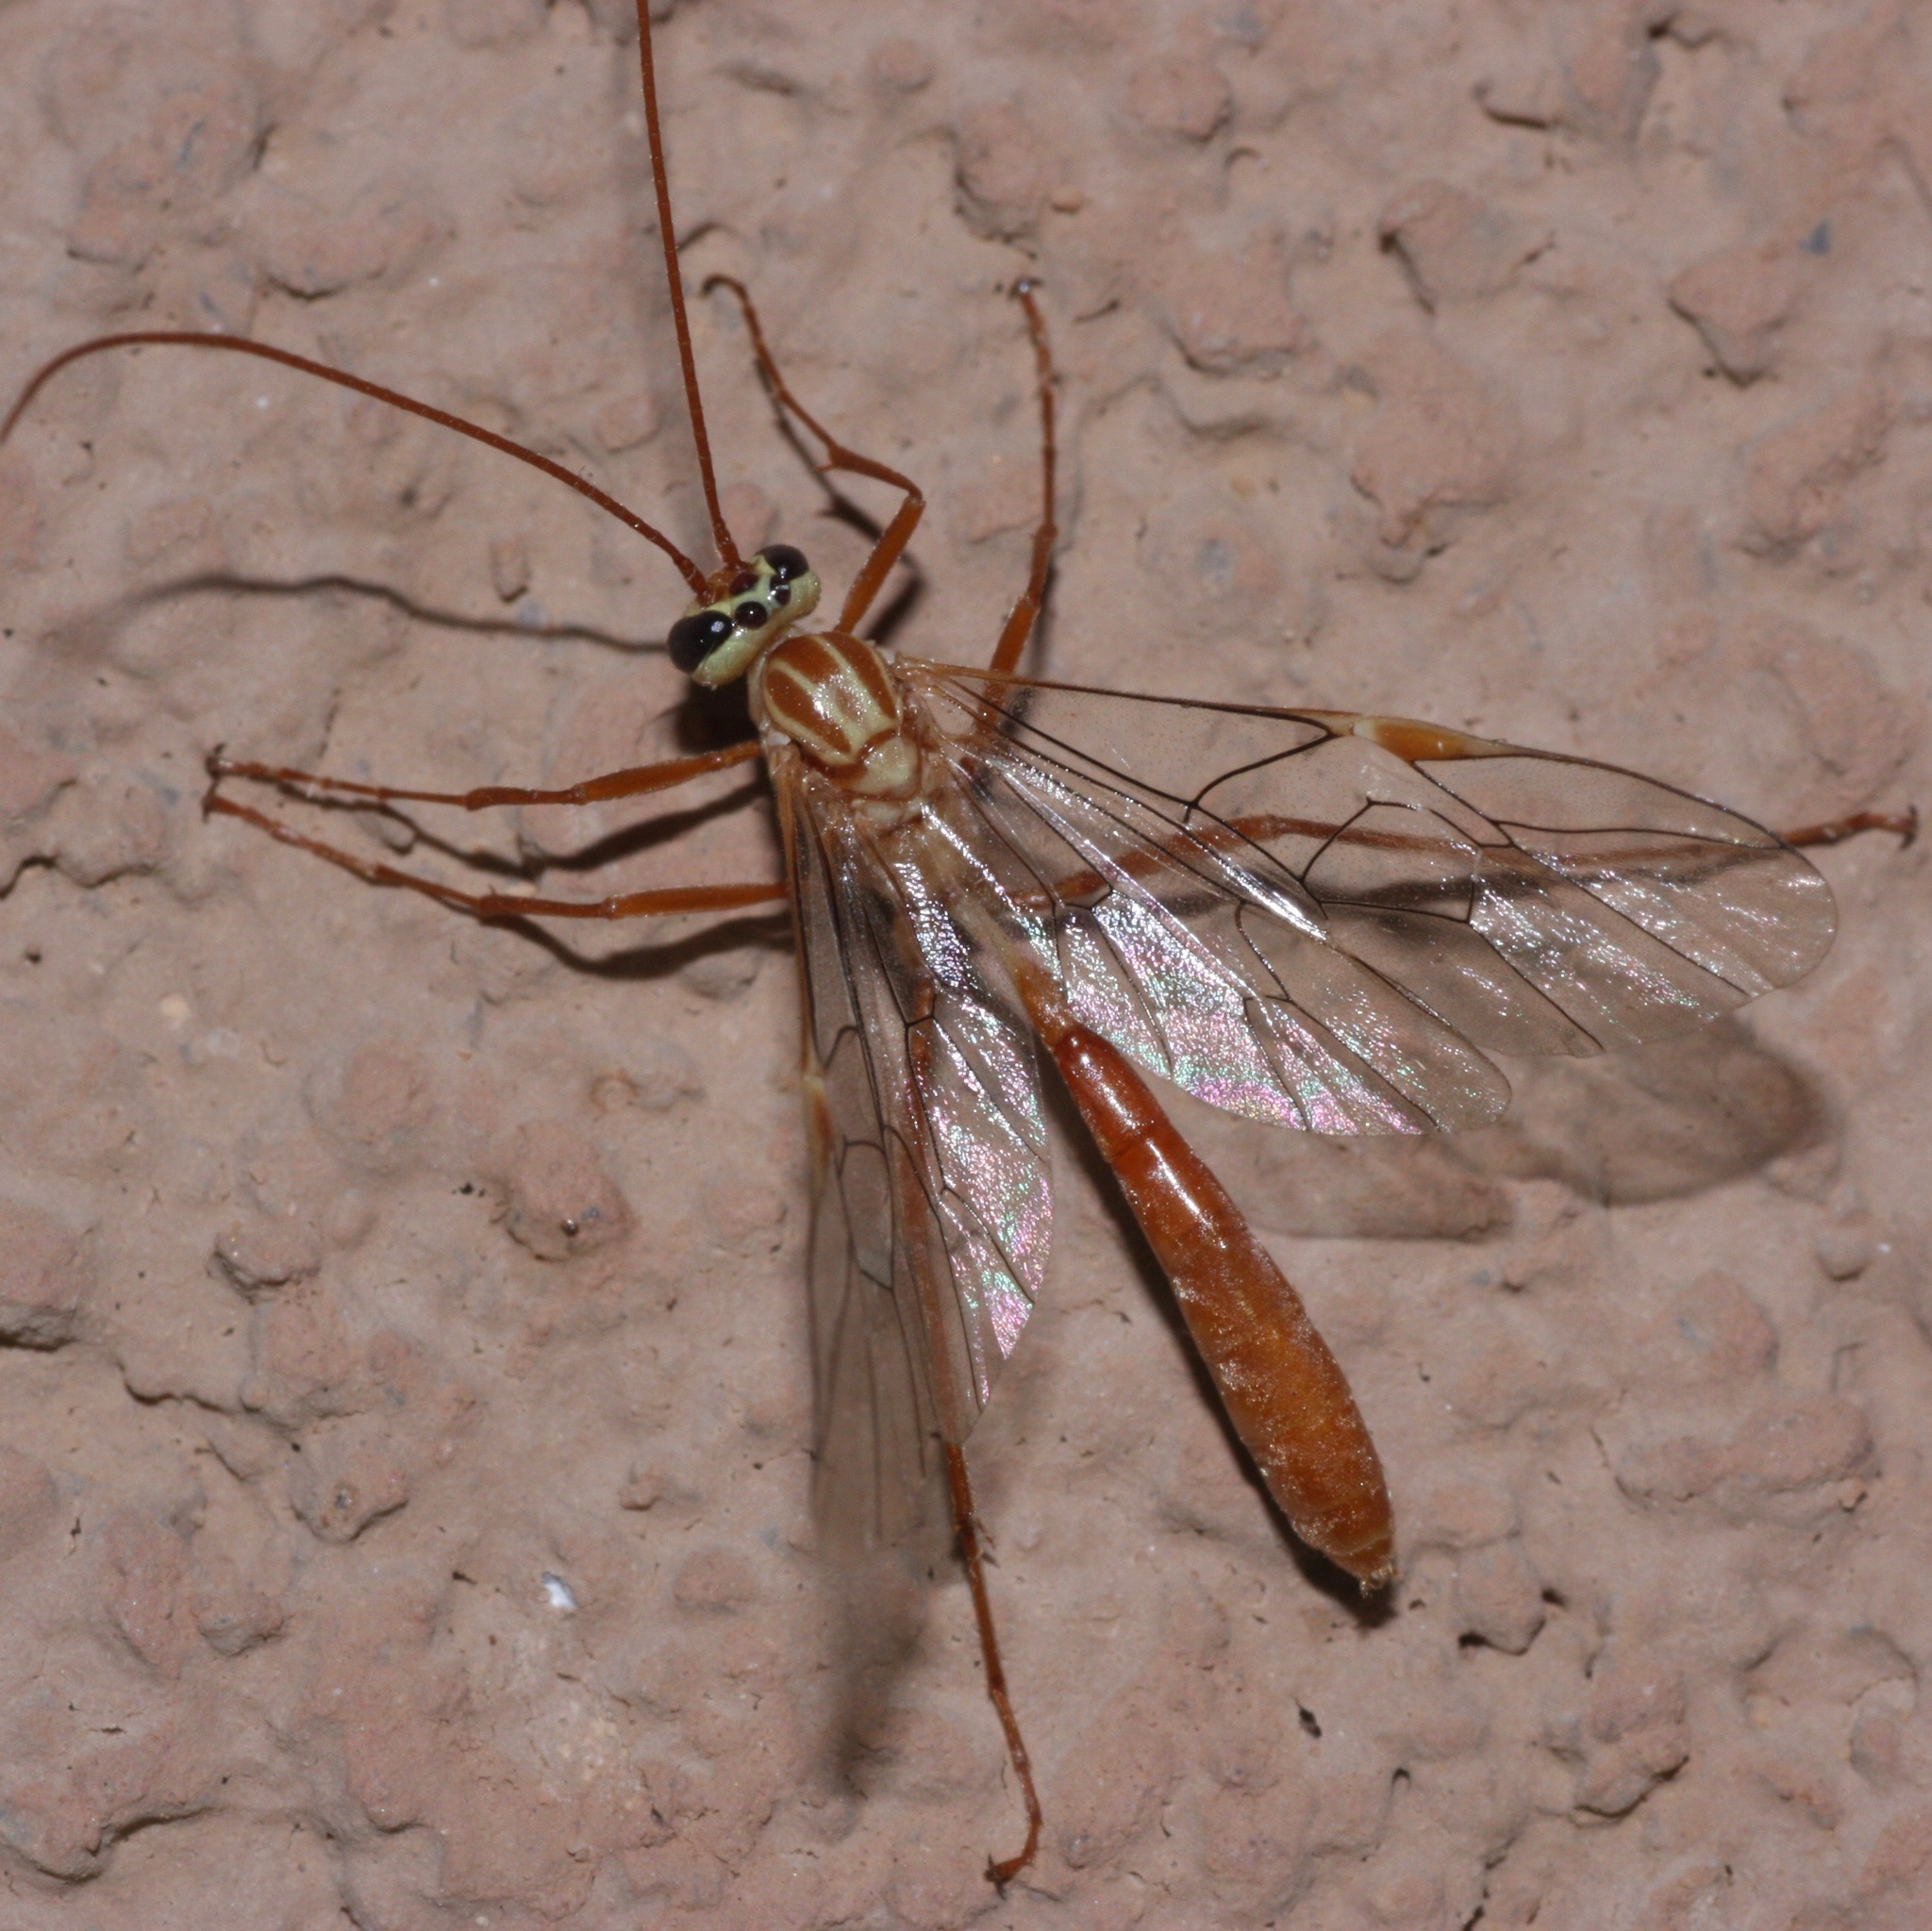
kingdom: Animalia
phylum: Arthropoda
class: Insecta
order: Hymenoptera
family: Ichneumonidae
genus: Ophion
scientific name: Ophion
